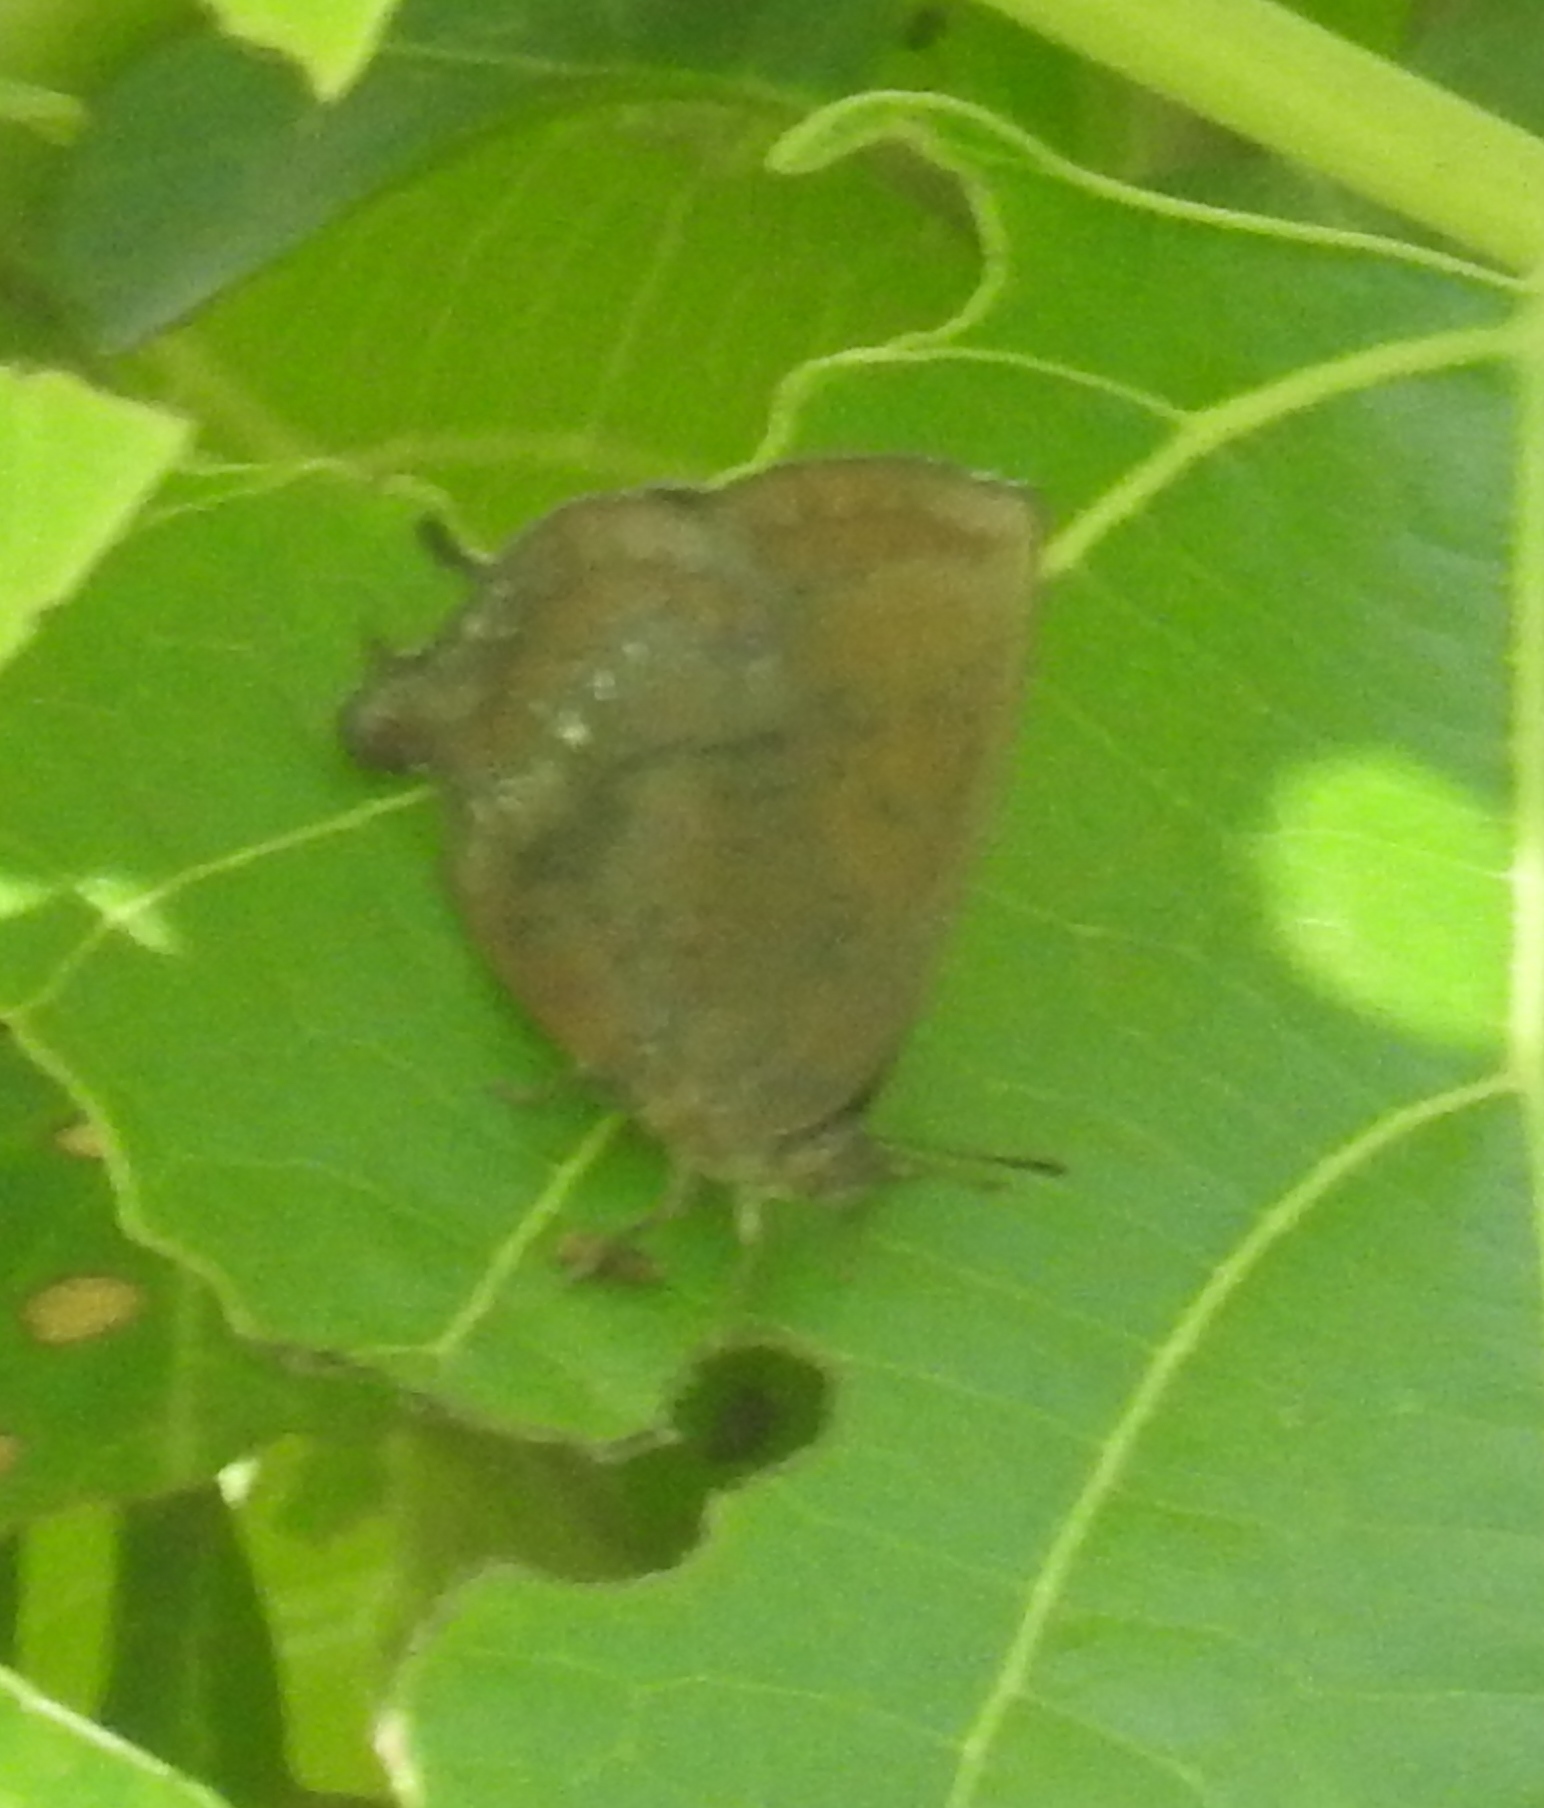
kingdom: Animalia
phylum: Arthropoda
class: Insecta
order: Lepidoptera
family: Lycaenidae
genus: Amblypodia
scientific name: Amblypodia anita
